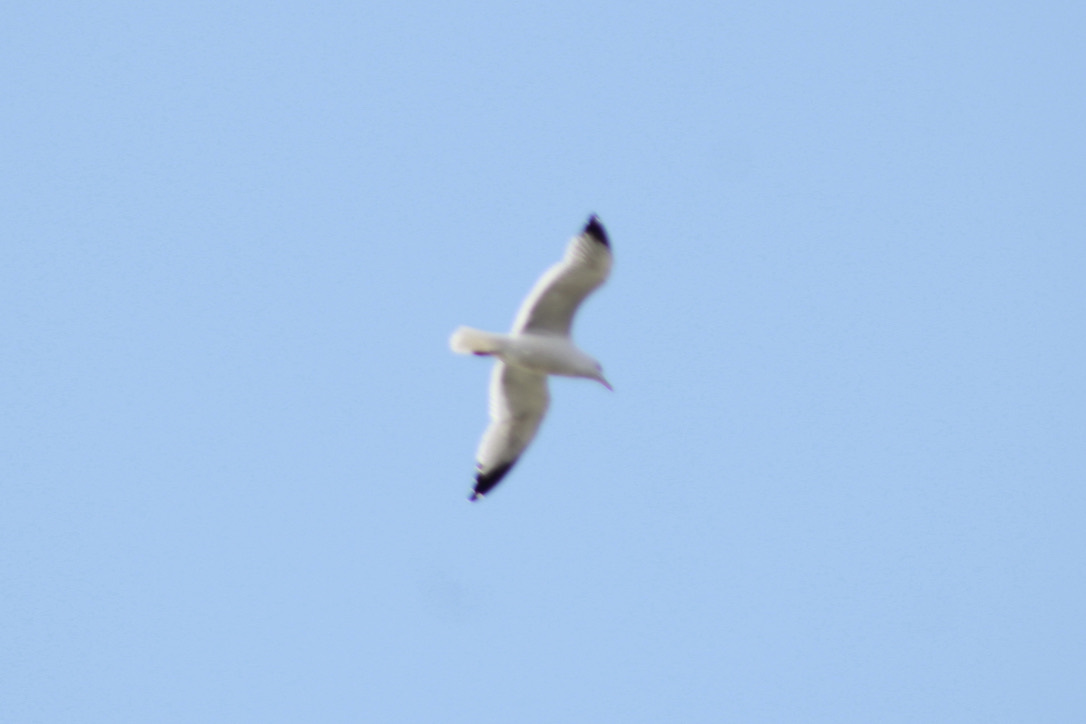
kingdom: Animalia
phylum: Chordata
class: Aves
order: Charadriiformes
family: Laridae
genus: Larus
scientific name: Larus argentatus
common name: Herring gull
